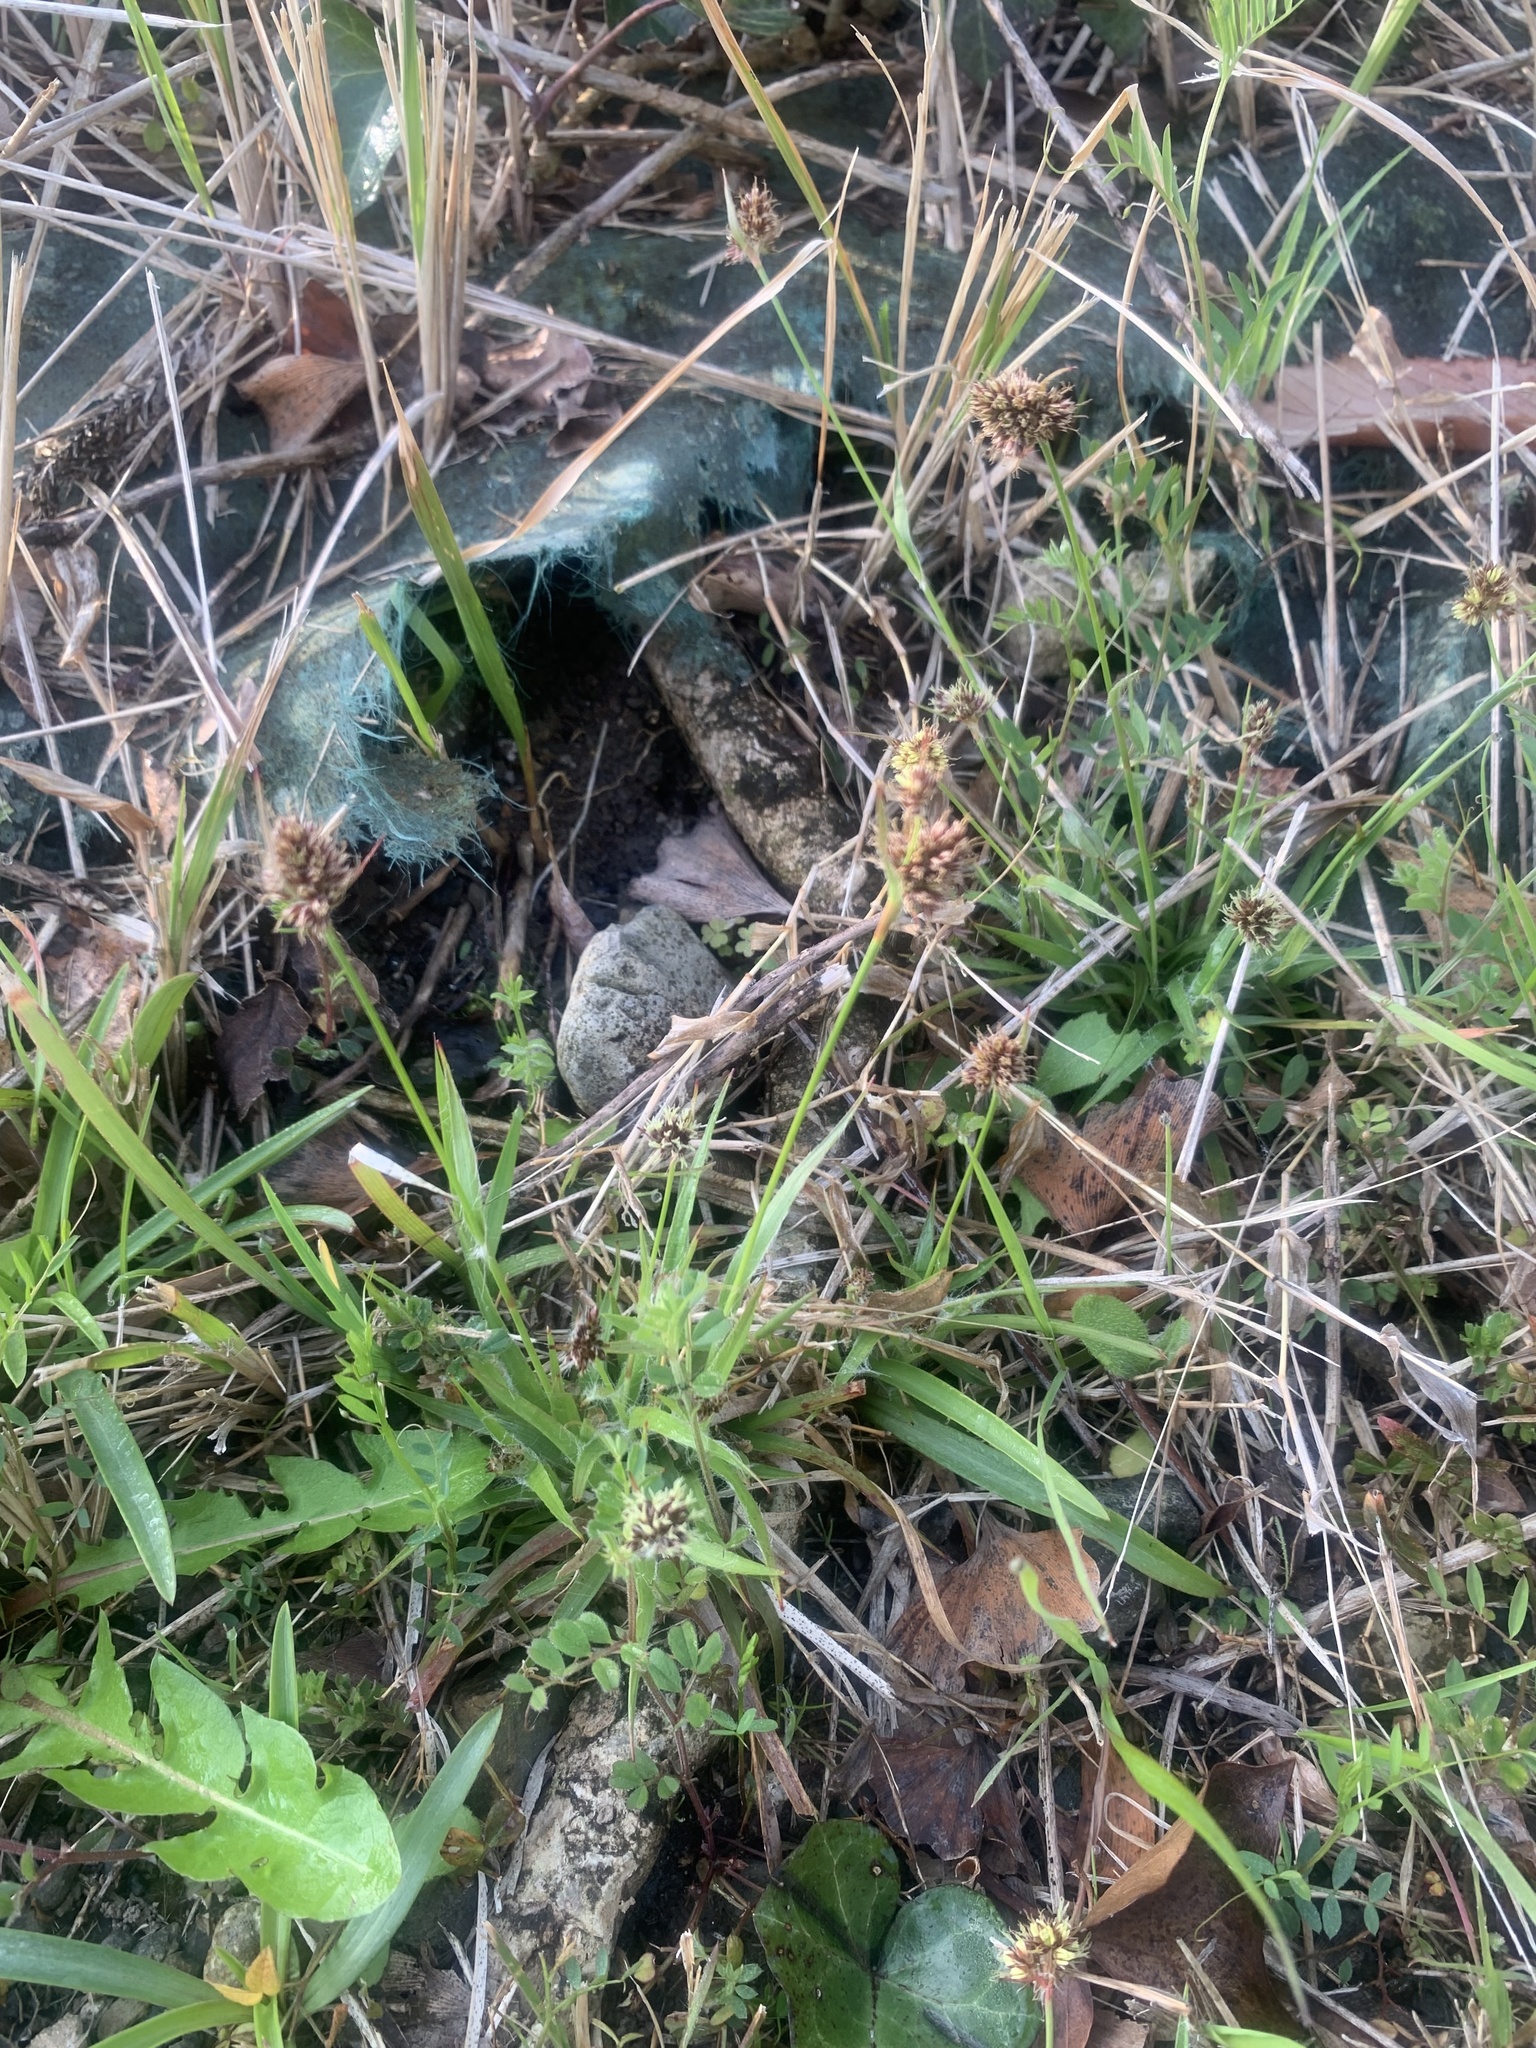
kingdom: Plantae
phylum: Tracheophyta
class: Liliopsida
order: Poales
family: Juncaceae
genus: Luzula
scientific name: Luzula capitata
